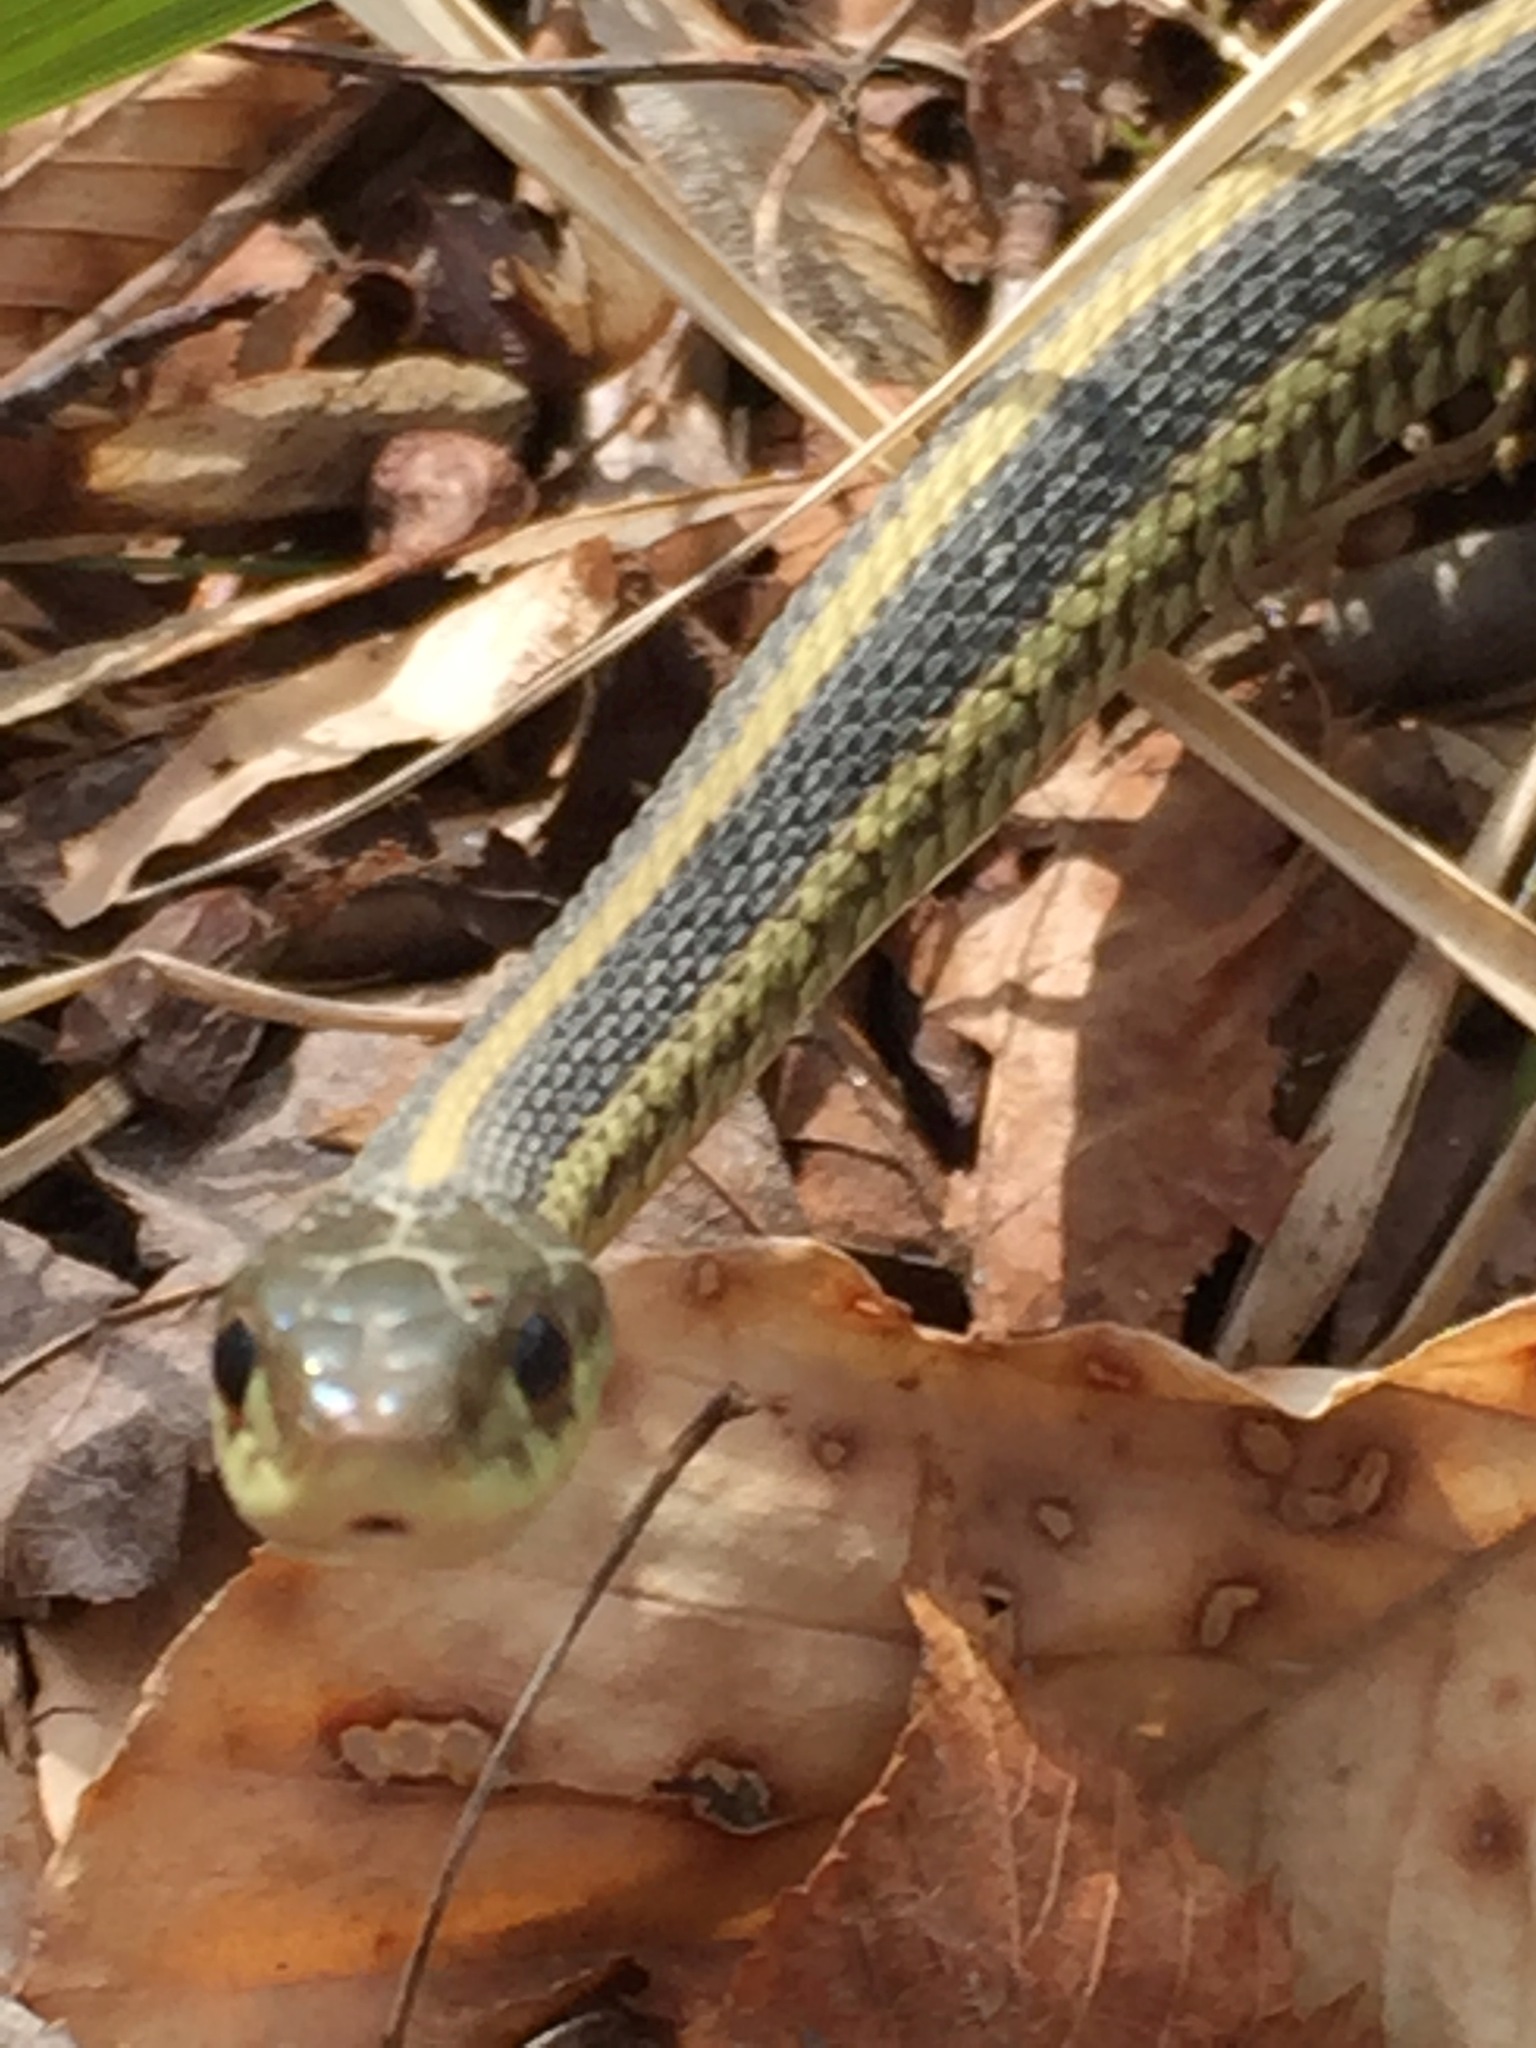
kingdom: Animalia
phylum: Chordata
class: Squamata
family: Colubridae
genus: Thamnophis
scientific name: Thamnophis sirtalis
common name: Common garter snake
